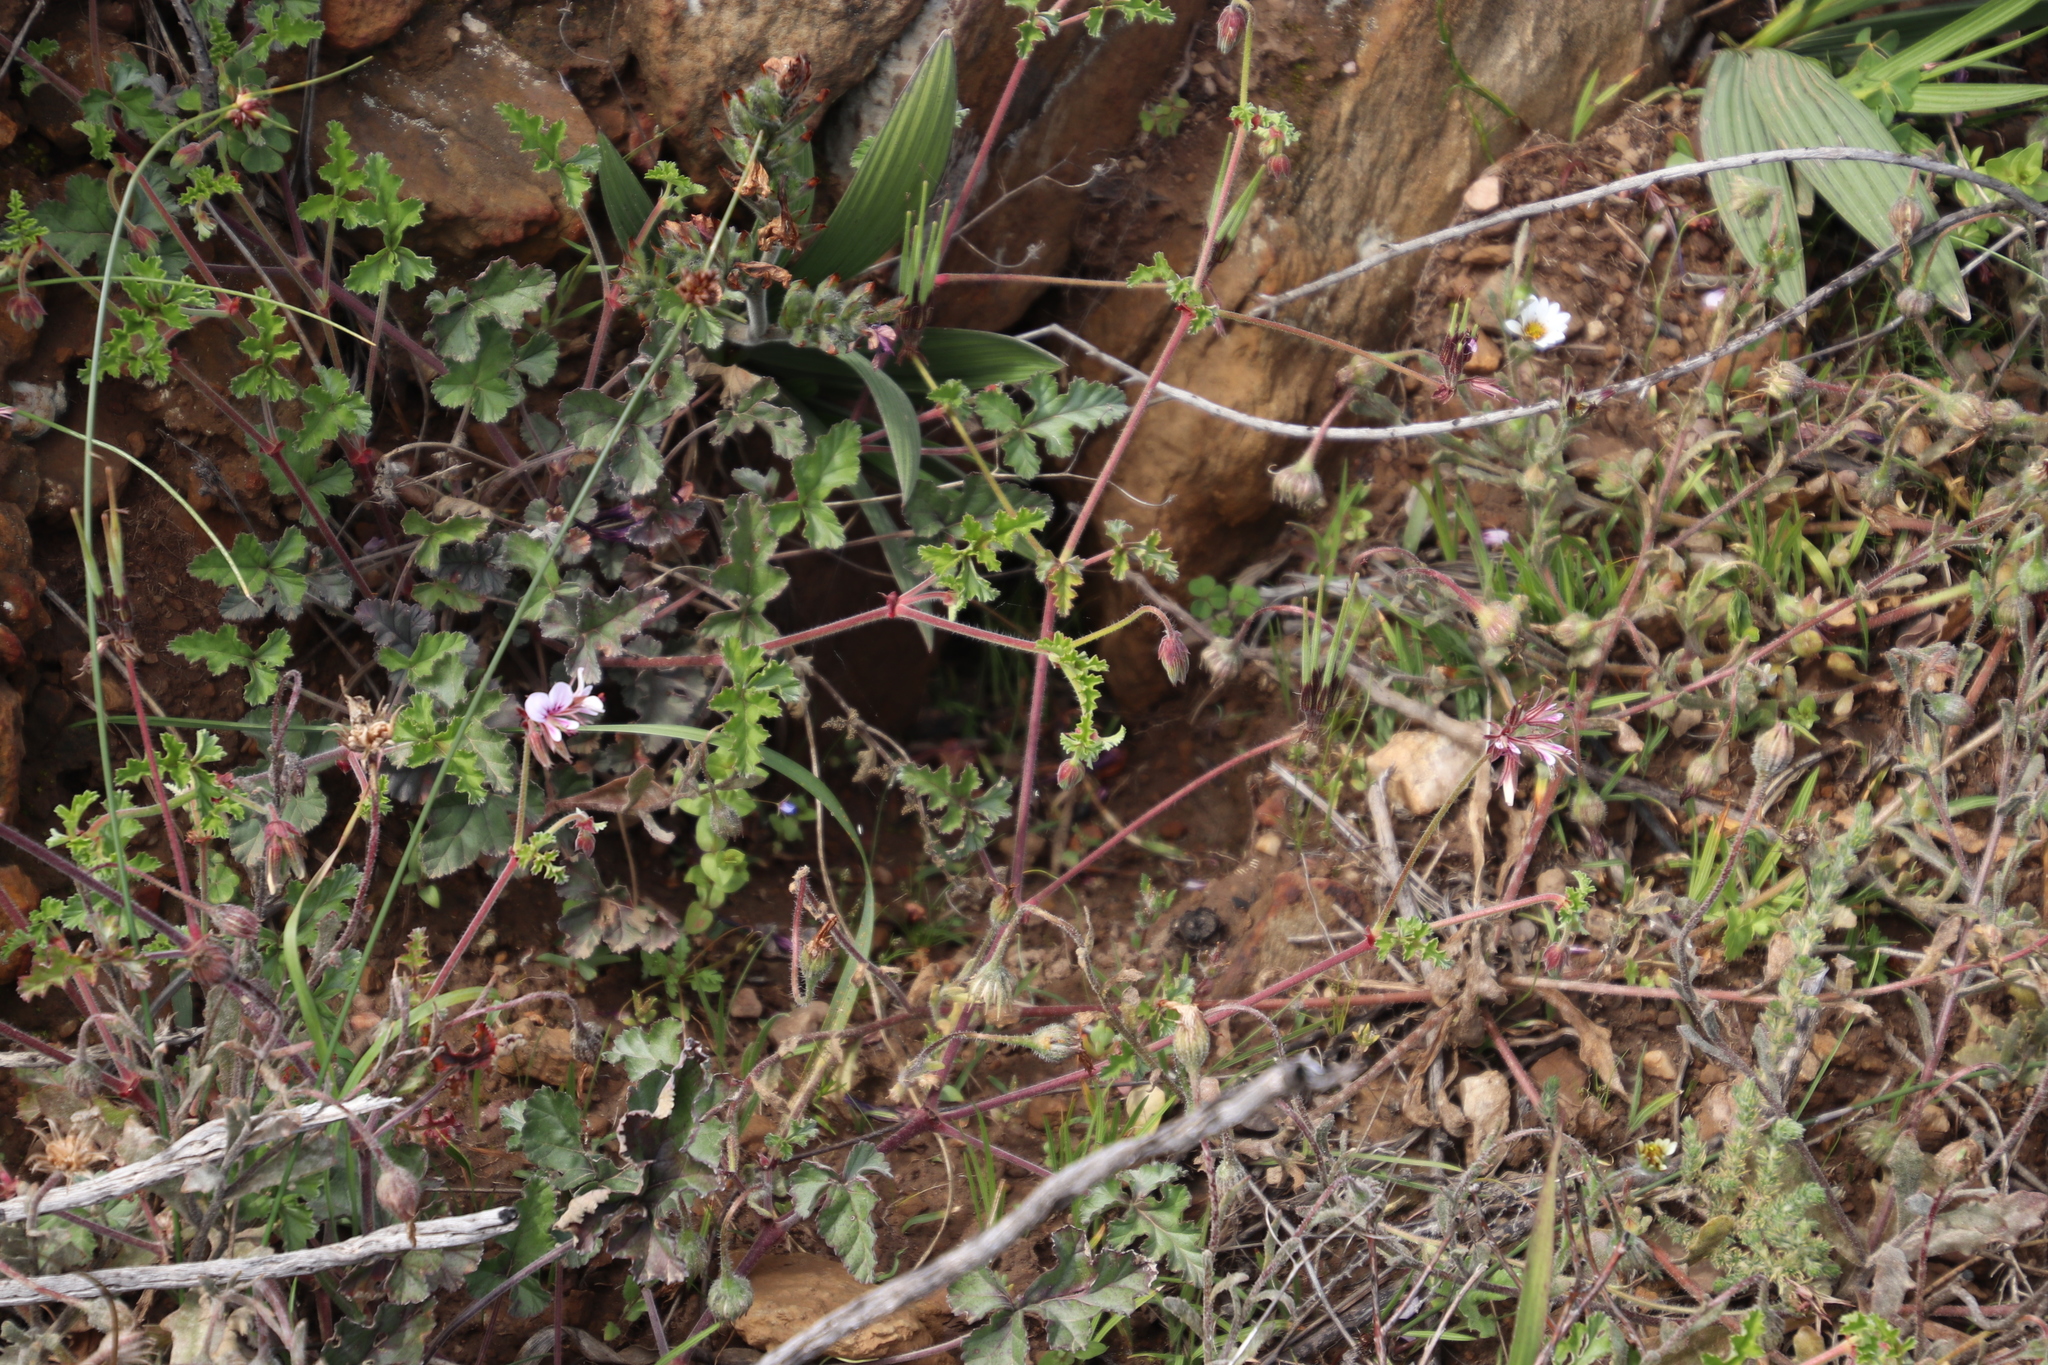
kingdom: Plantae
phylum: Tracheophyta
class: Magnoliopsida
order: Geraniales
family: Geraniaceae
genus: Pelargonium
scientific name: Pelargonium myrrhifolium
